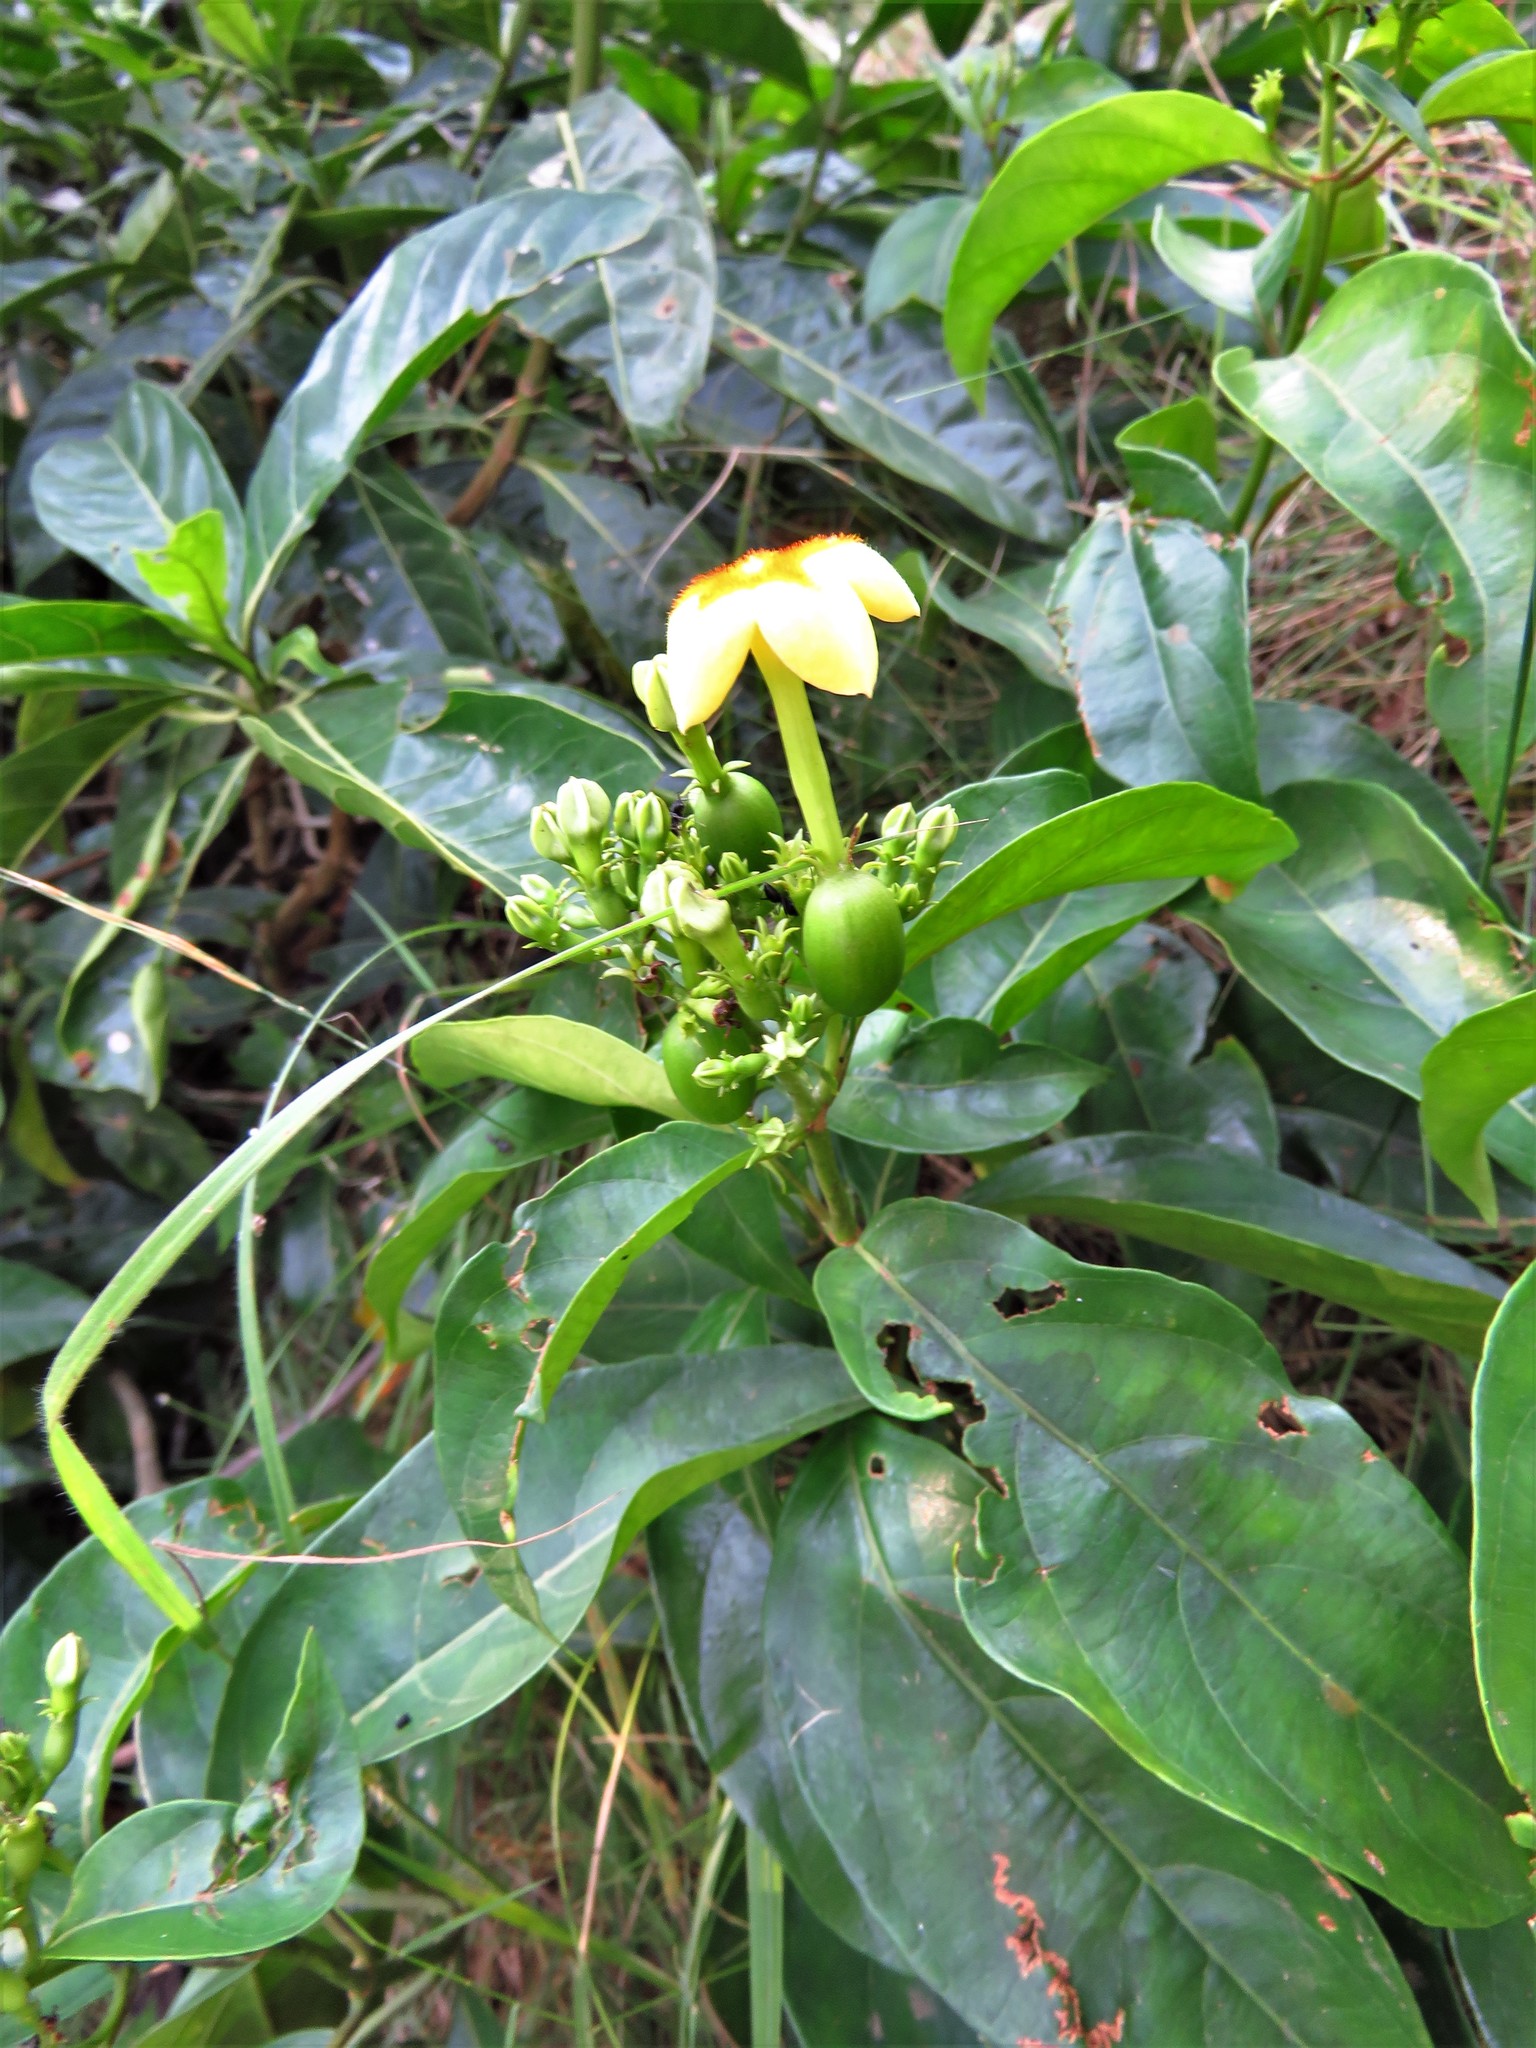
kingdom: Plantae
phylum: Tracheophyta
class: Magnoliopsida
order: Gentianales
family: Rubiaceae
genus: Mussaenda
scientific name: Mussaenda arcuata
